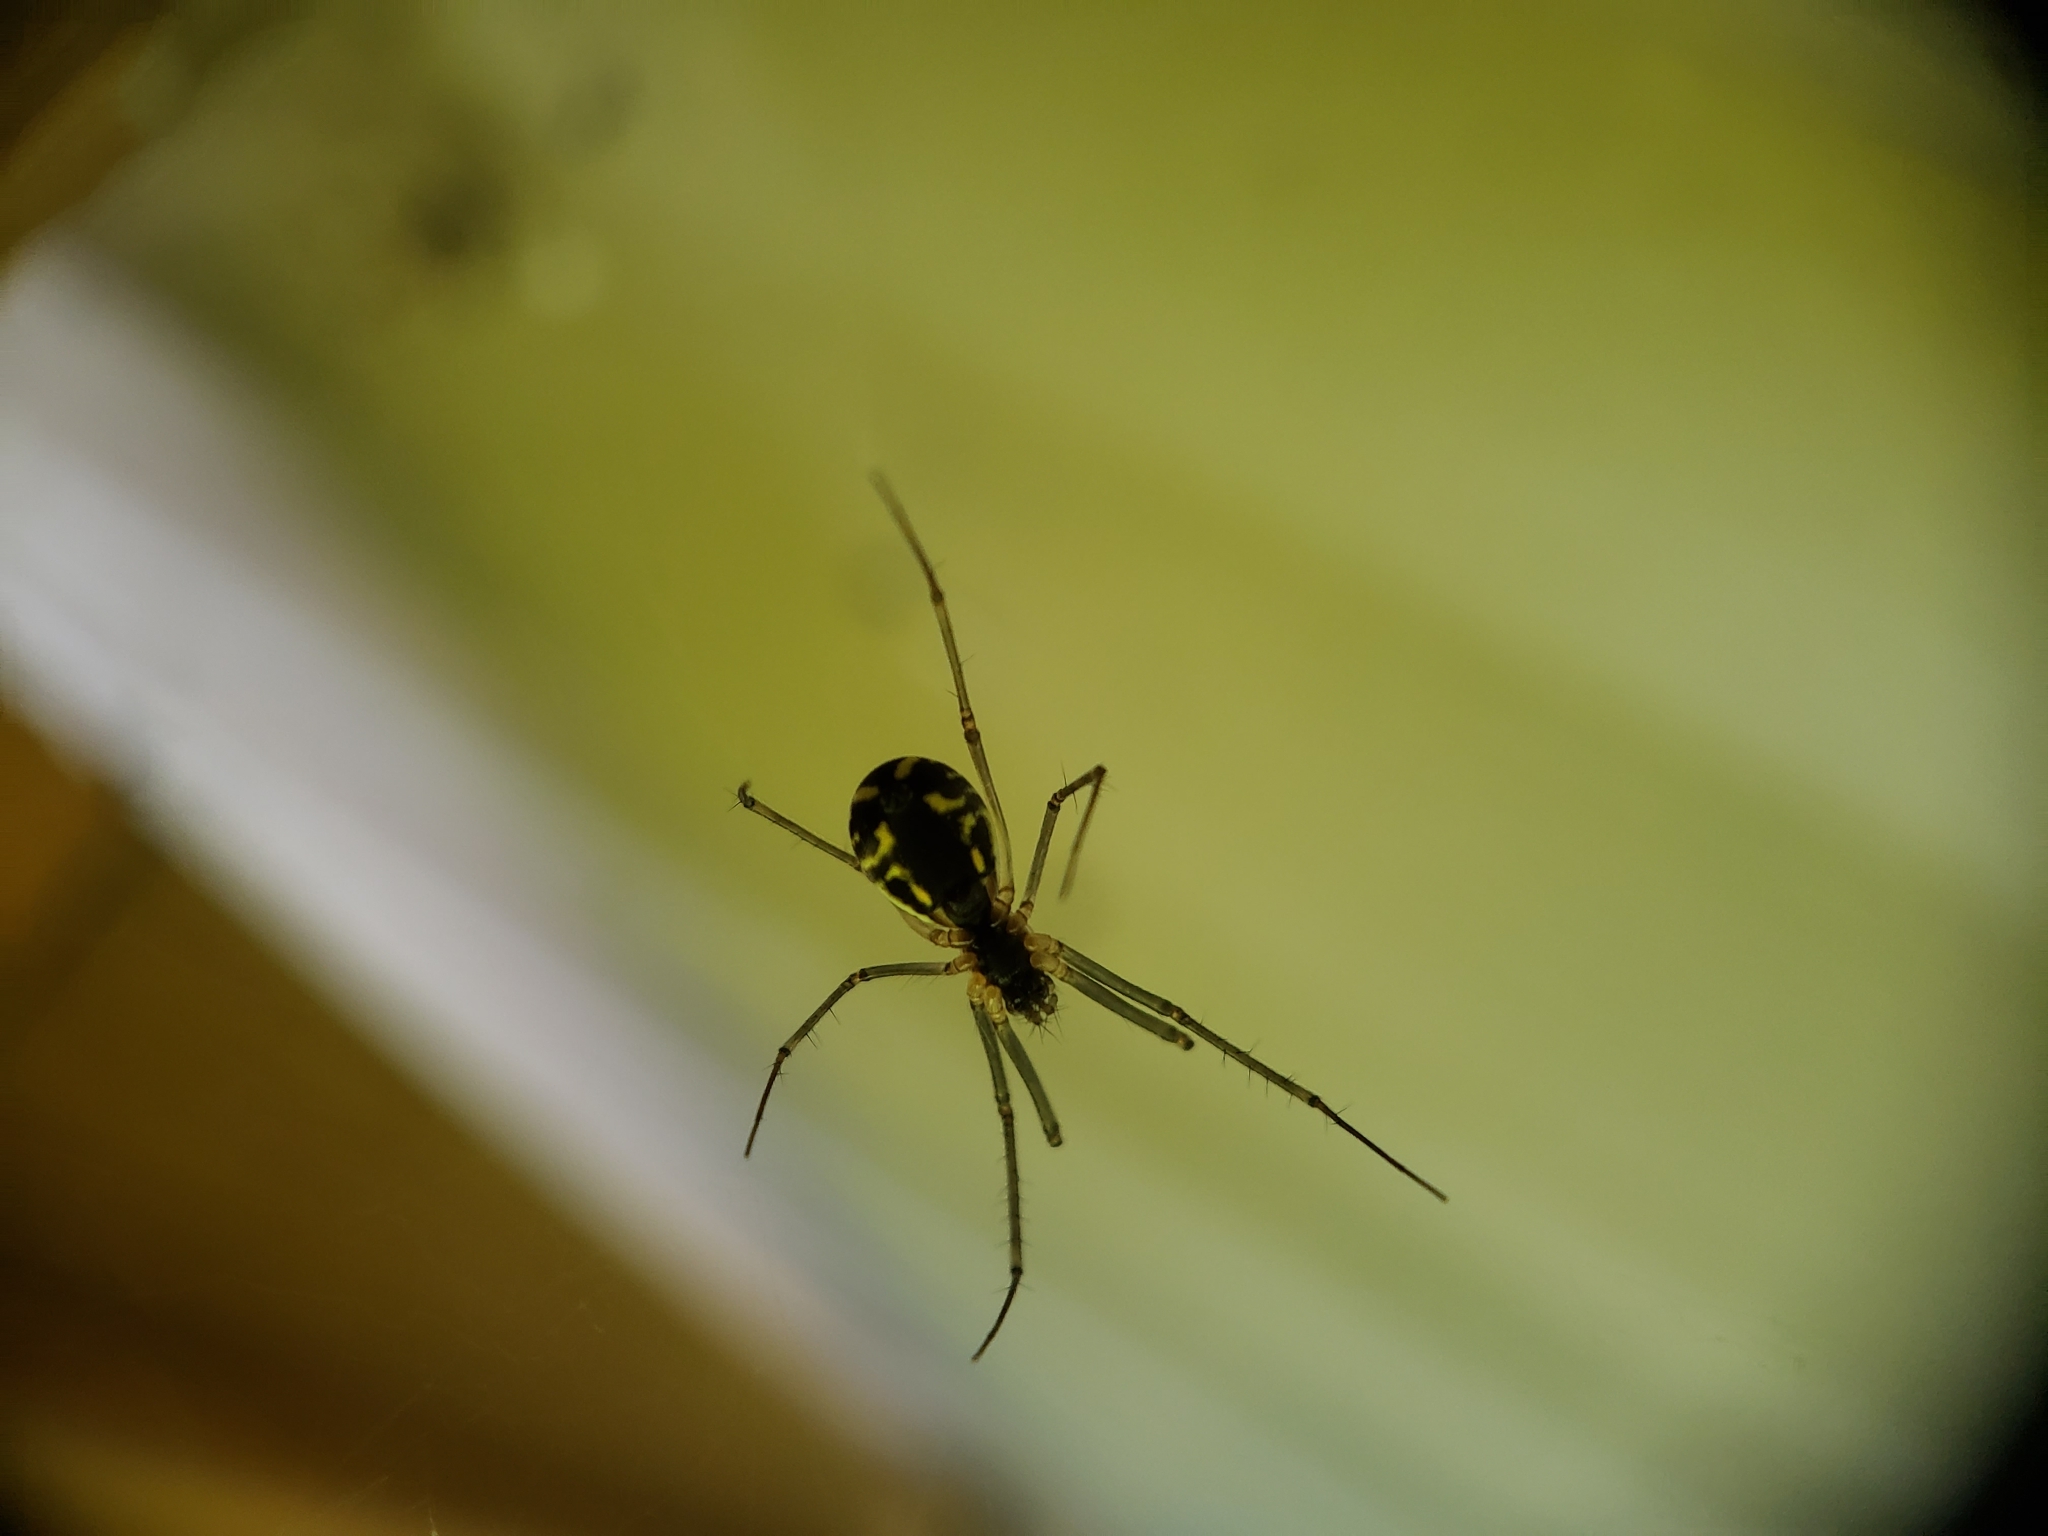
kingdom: Animalia
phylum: Arthropoda
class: Arachnida
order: Araneae
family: Linyphiidae
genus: Neriene
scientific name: Neriene radiata
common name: Filmy dome spider
